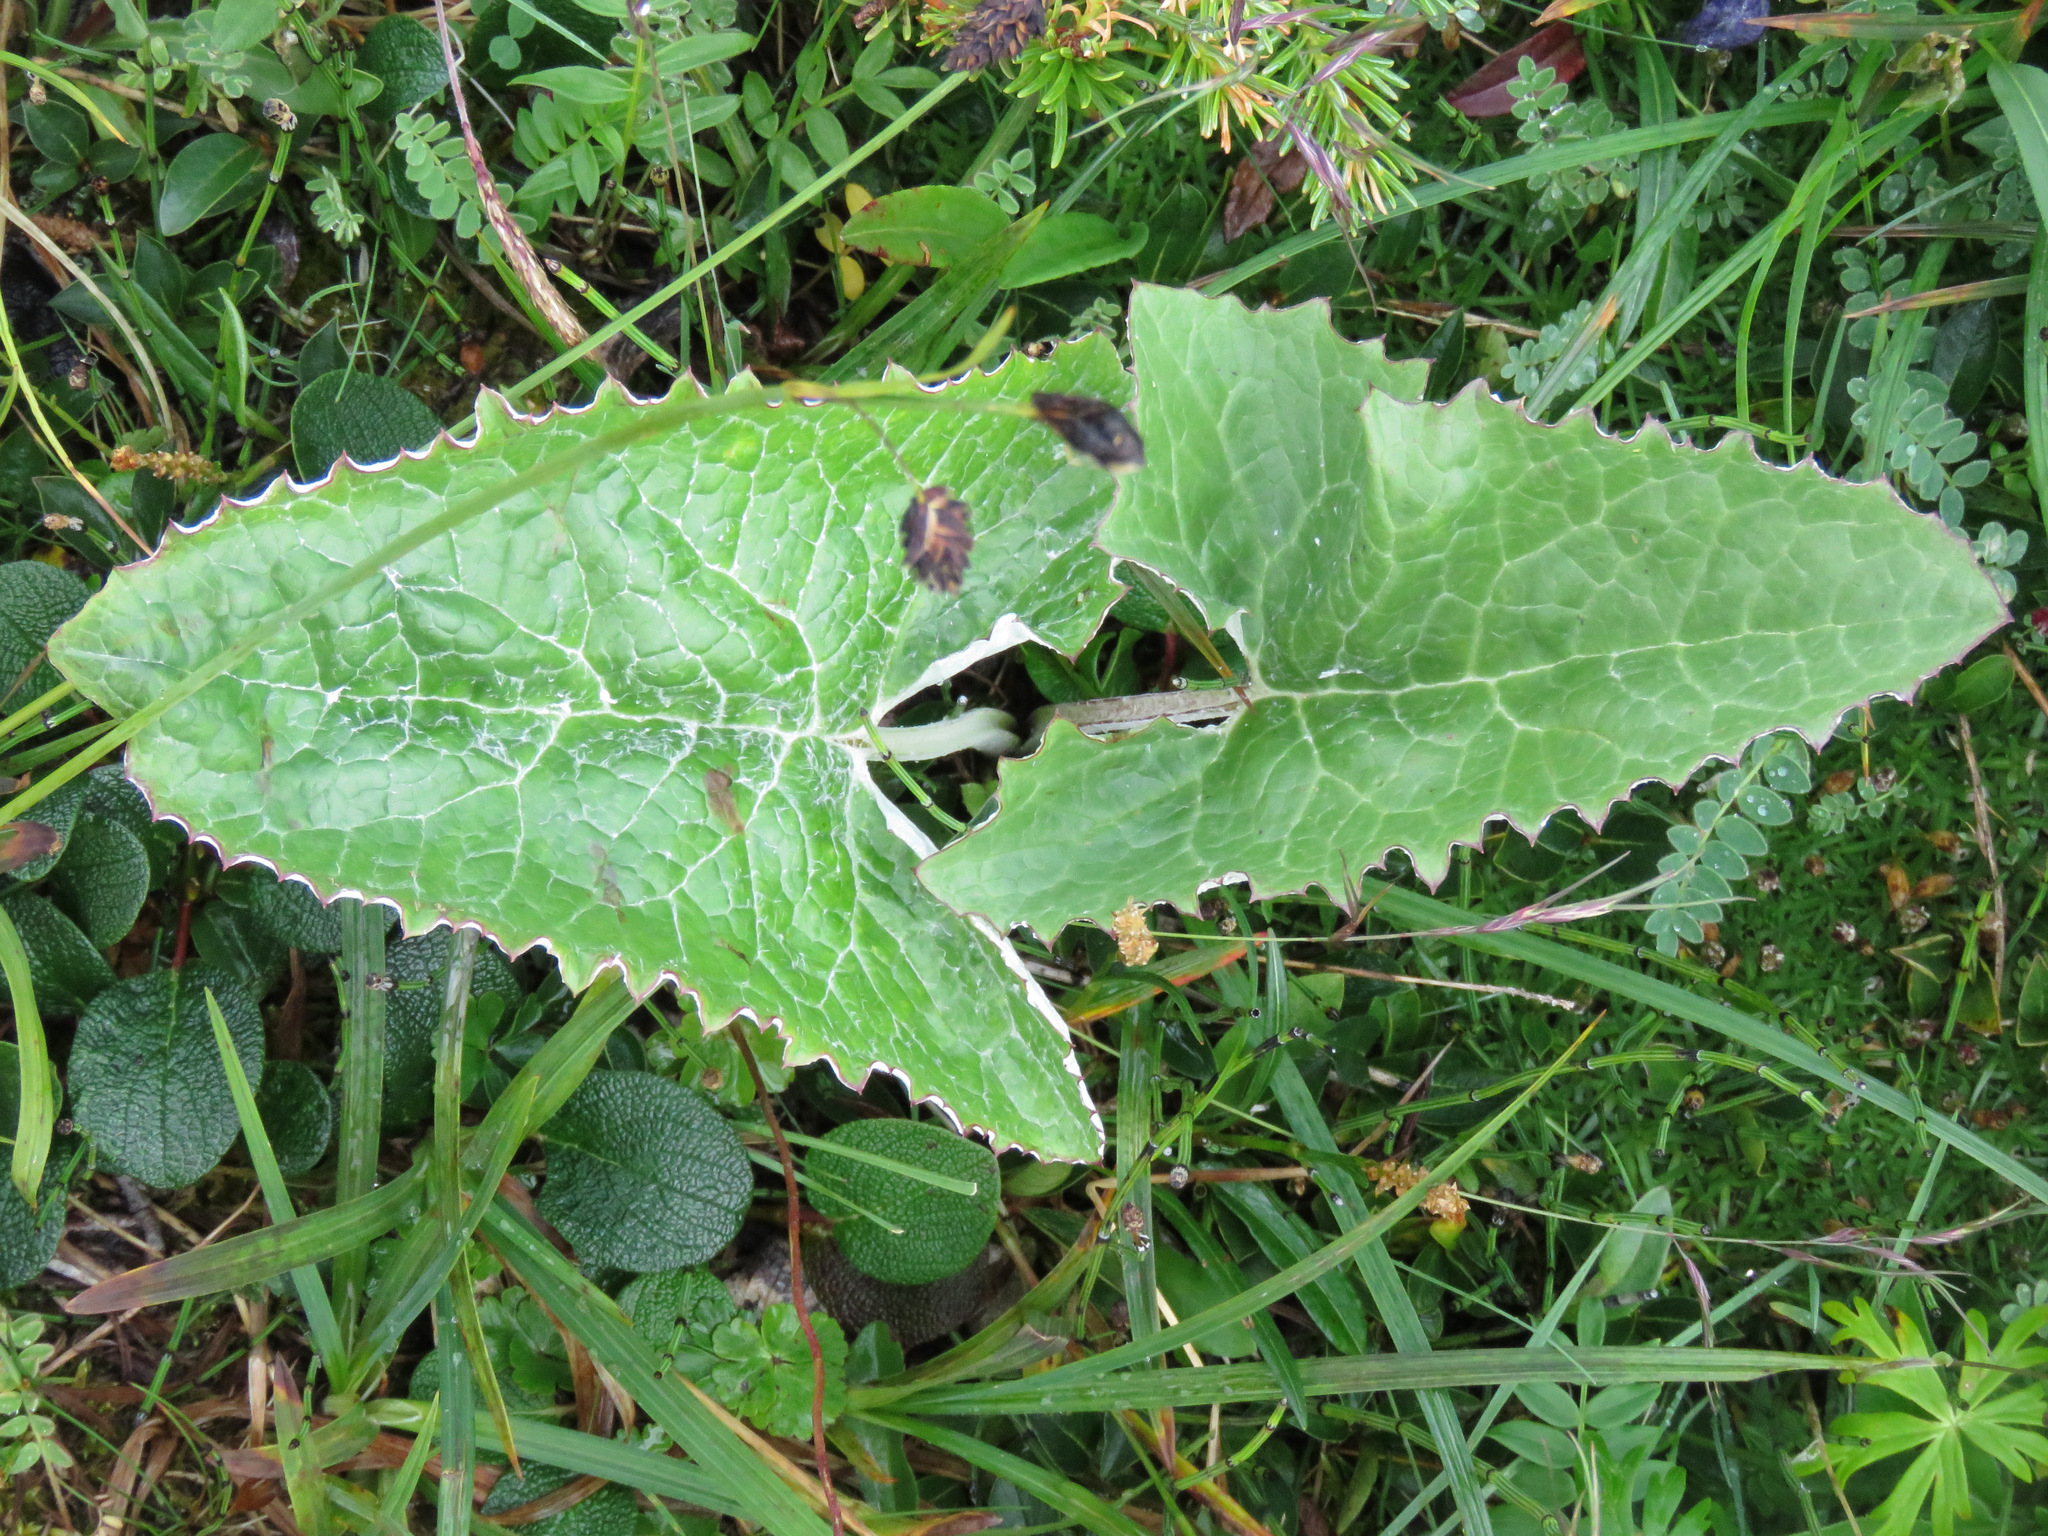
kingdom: Plantae
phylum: Tracheophyta
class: Magnoliopsida
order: Asterales
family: Asteraceae
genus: Petasites
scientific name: Petasites frigidus
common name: Arctic butterbur
